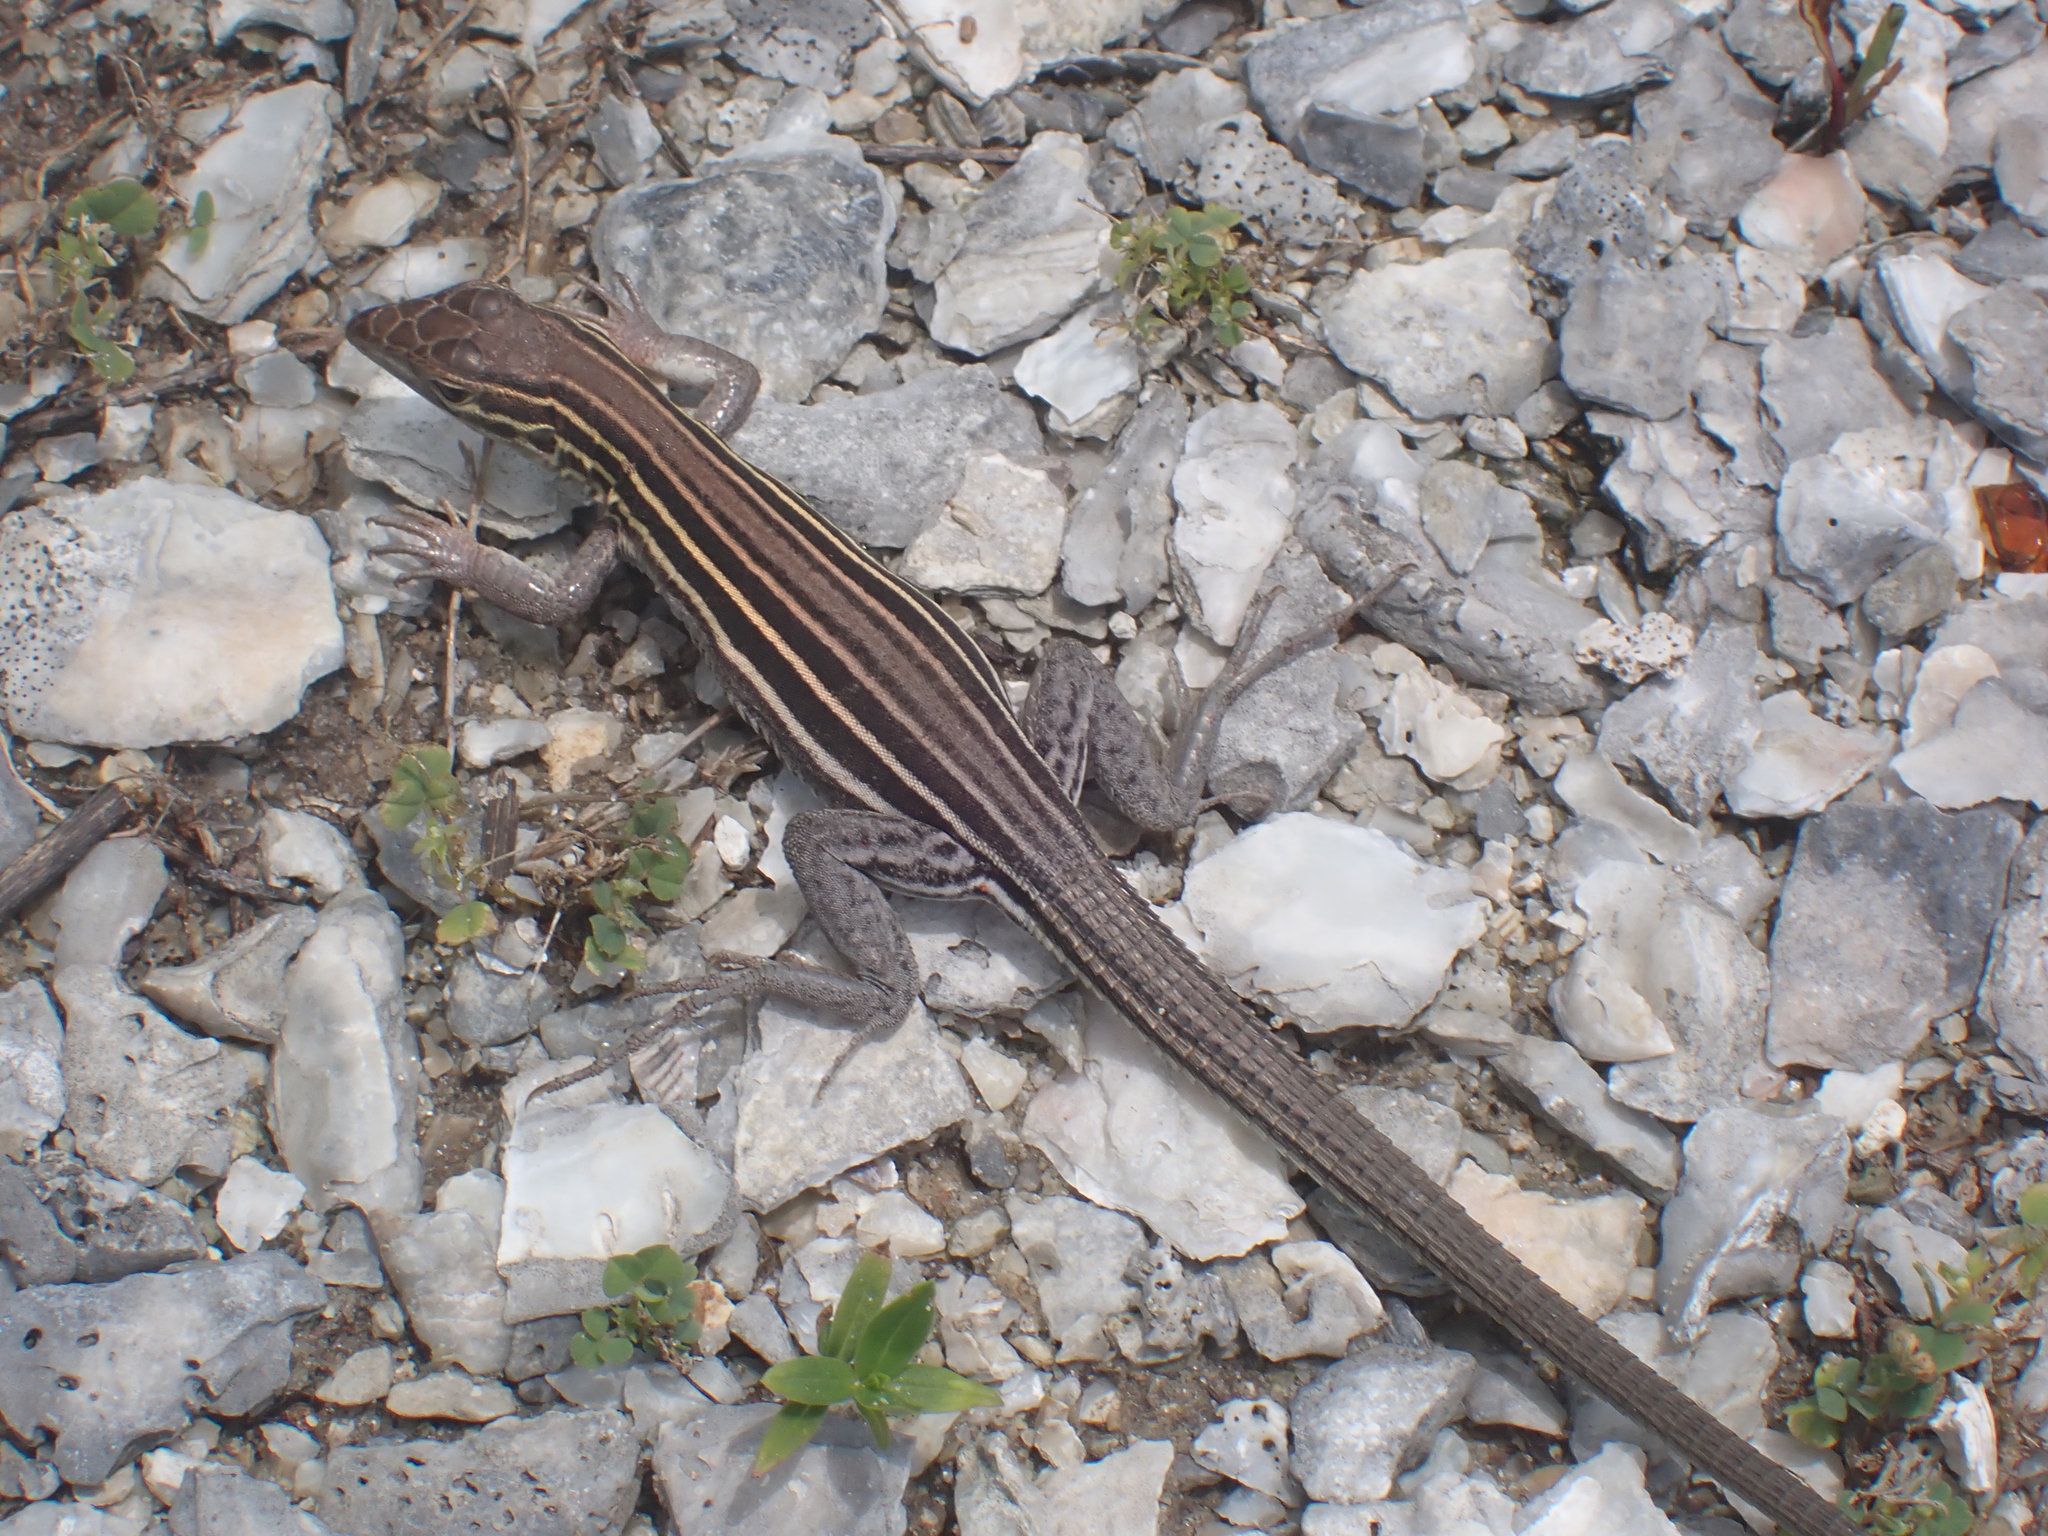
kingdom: Animalia
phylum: Chordata
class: Squamata
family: Teiidae
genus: Aspidoscelis
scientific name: Aspidoscelis sexlineatus
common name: Six-lined racerunner
